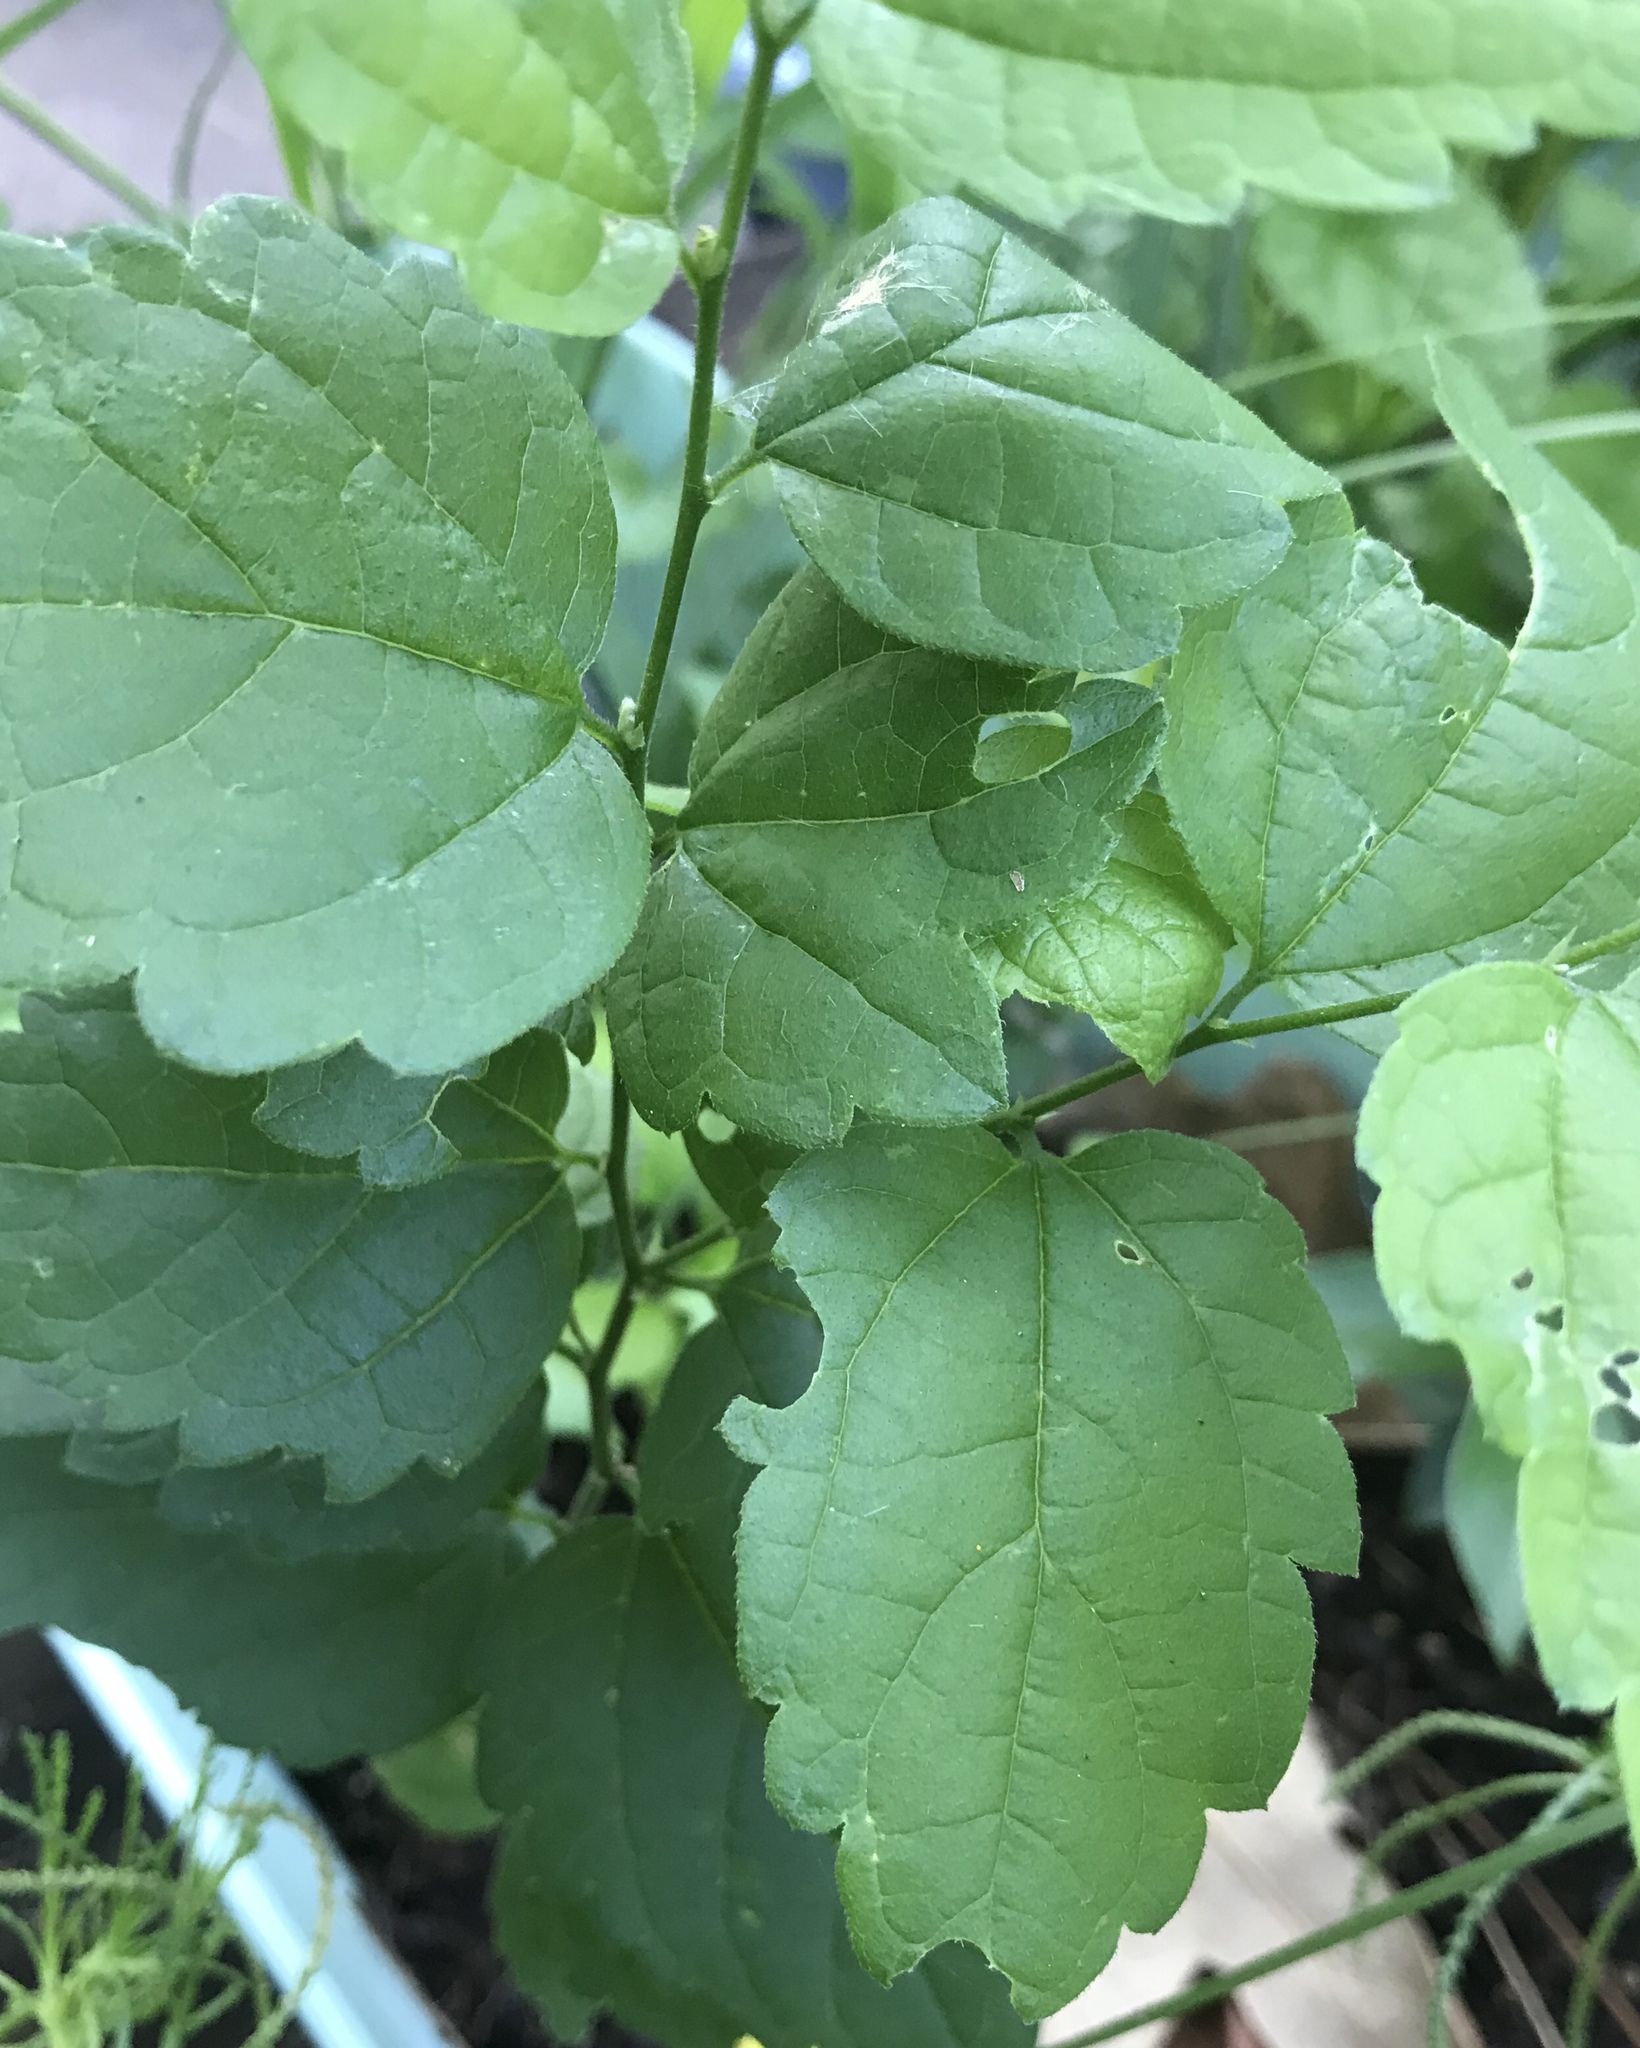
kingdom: Plantae
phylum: Tracheophyta
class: Magnoliopsida
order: Rosales
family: Cannabaceae
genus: Celtis
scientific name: Celtis laevigata
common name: Sugarberry
